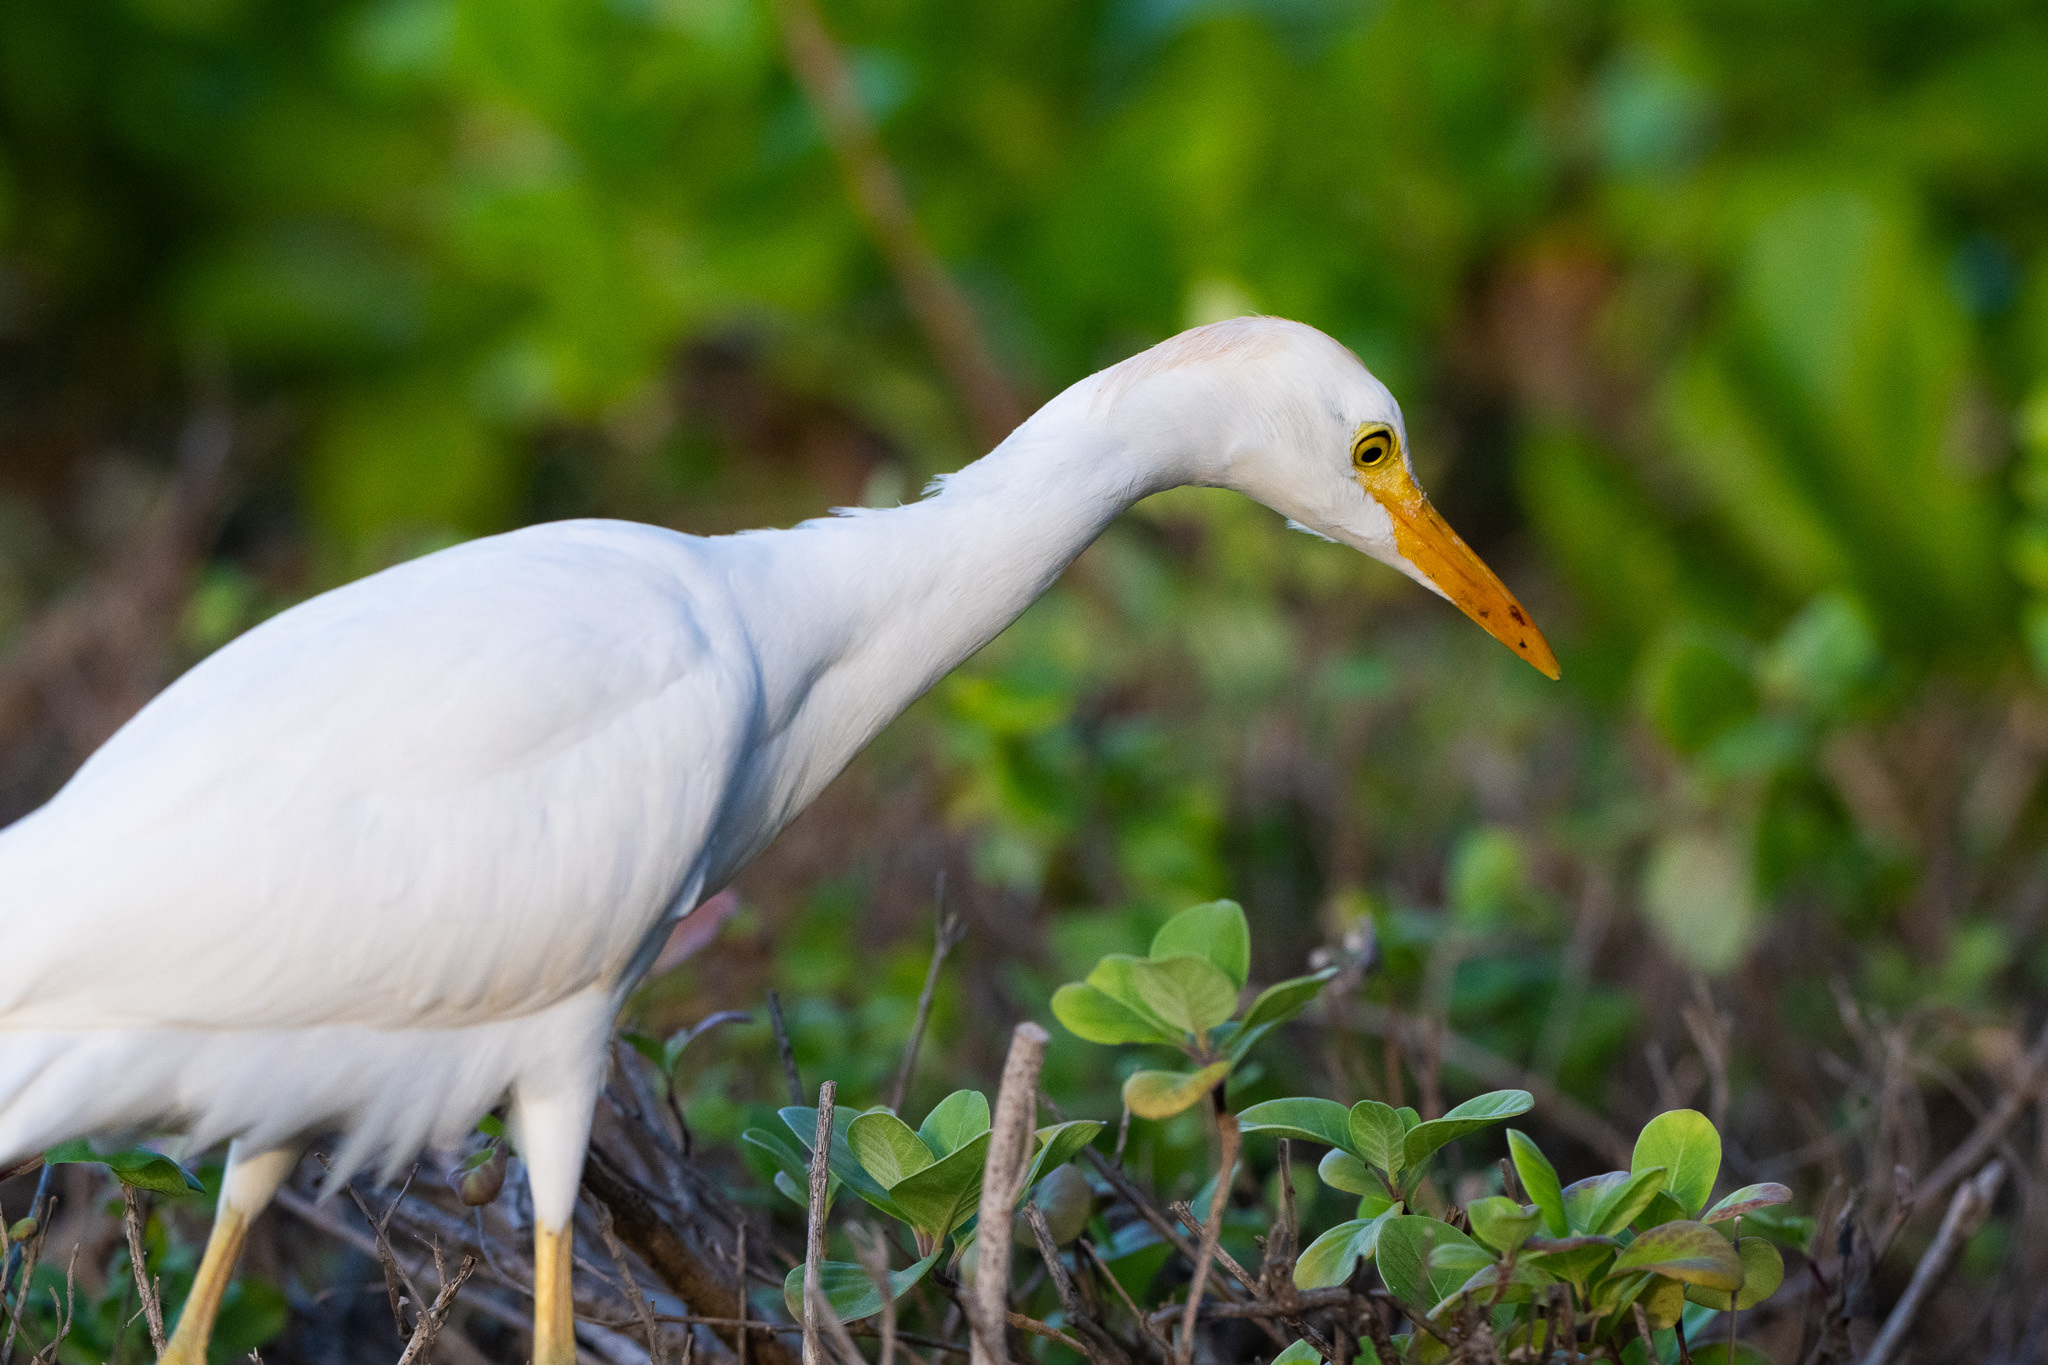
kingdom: Animalia
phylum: Chordata
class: Aves
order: Pelecaniformes
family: Ardeidae
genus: Bubulcus
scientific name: Bubulcus ibis
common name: Cattle egret
